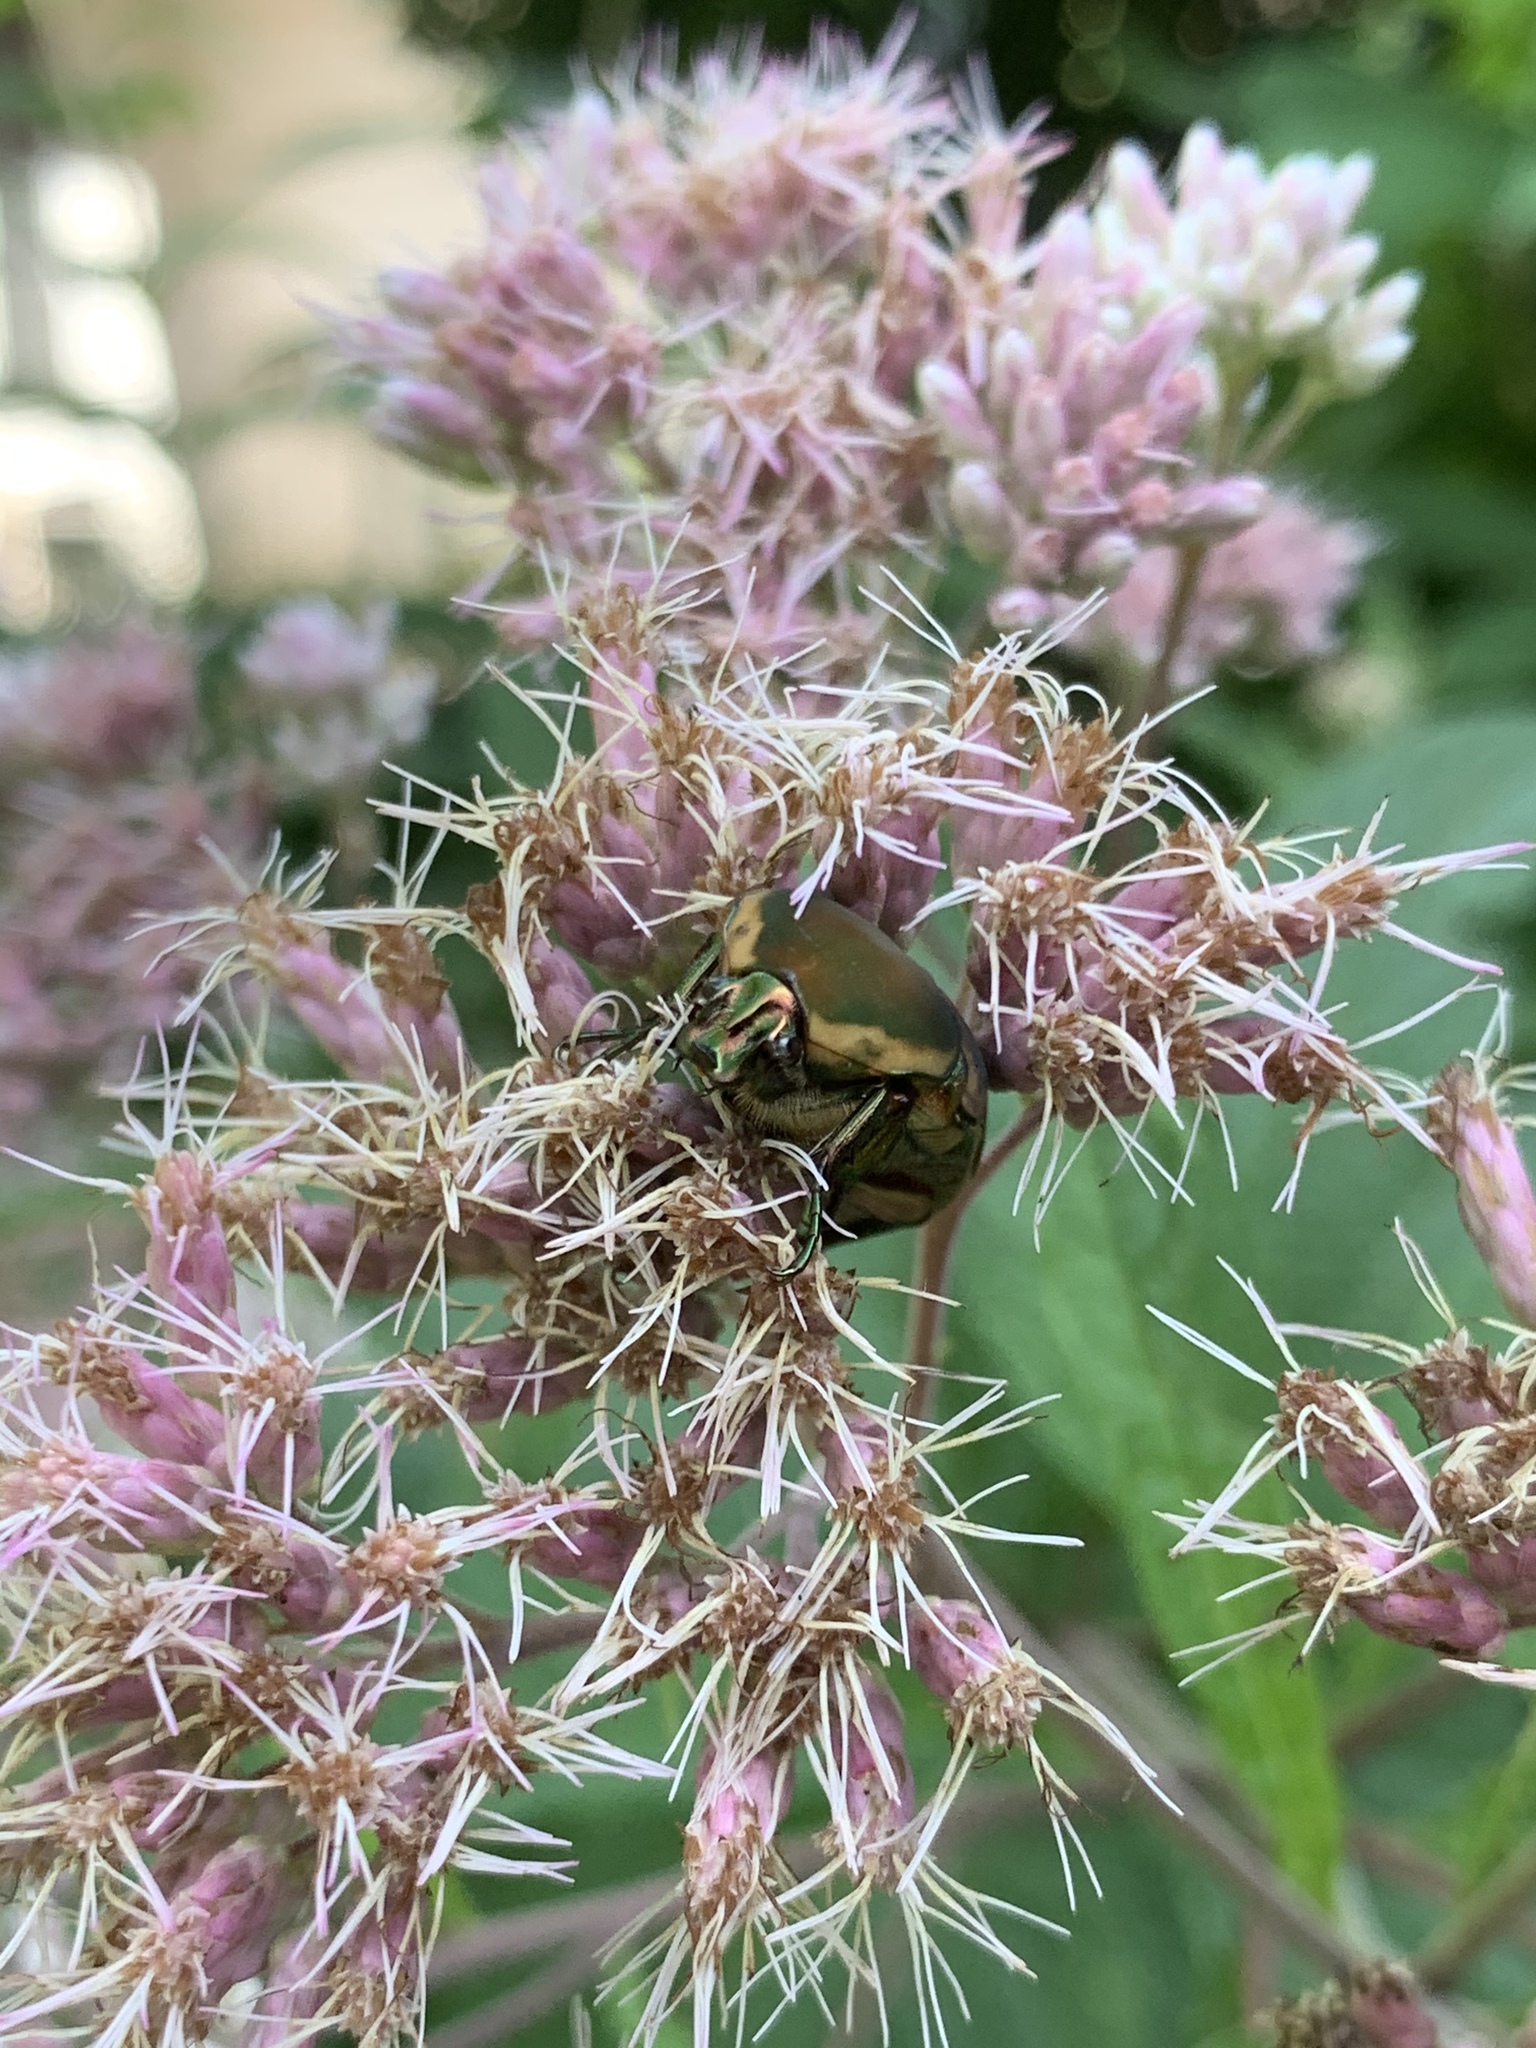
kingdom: Animalia
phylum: Arthropoda
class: Insecta
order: Coleoptera
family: Scarabaeidae
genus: Cotinis
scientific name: Cotinis nitida
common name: Common green june beetle
